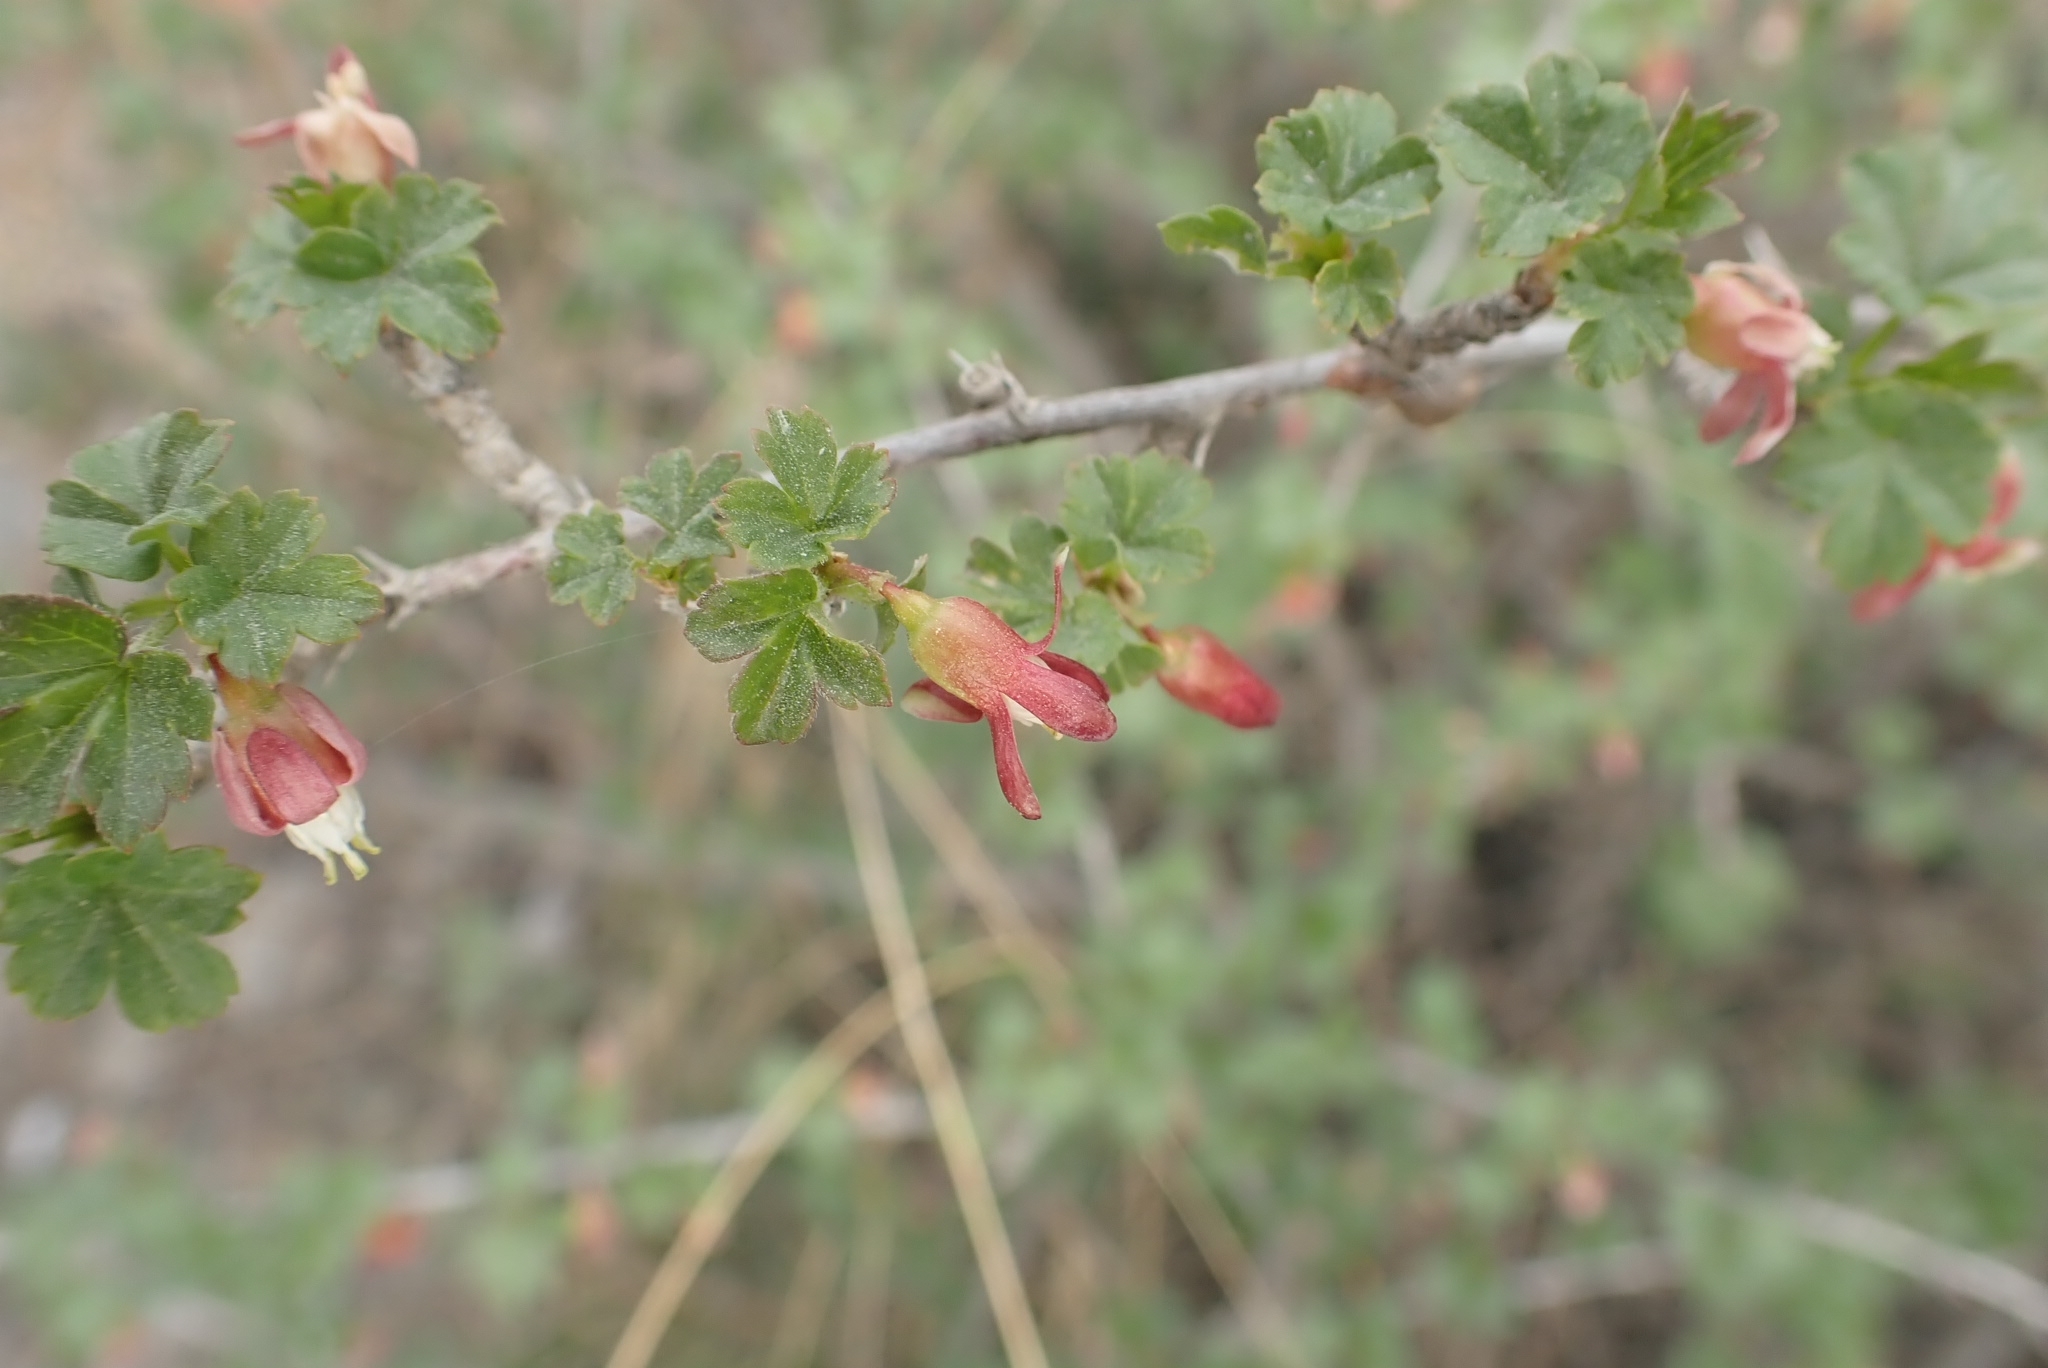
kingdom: Plantae
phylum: Tracheophyta
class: Magnoliopsida
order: Saxifragales
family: Grossulariaceae
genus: Ribes
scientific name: Ribes aciculare
